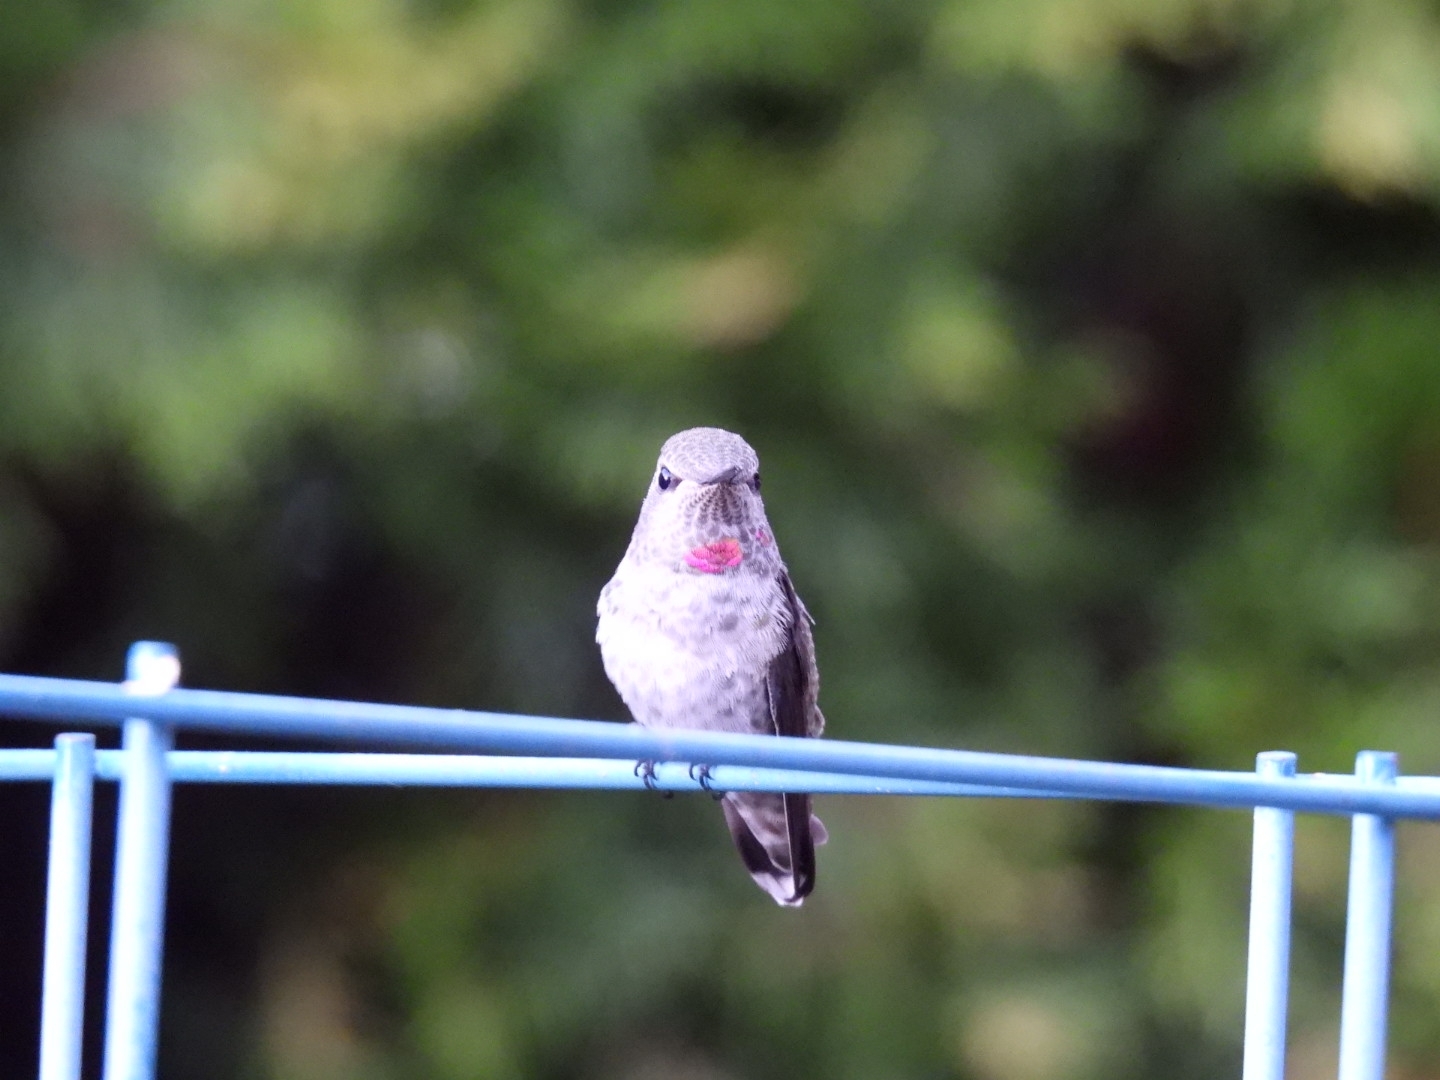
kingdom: Animalia
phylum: Chordata
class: Aves
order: Apodiformes
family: Trochilidae
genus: Calypte
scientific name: Calypte anna
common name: Anna's hummingbird
